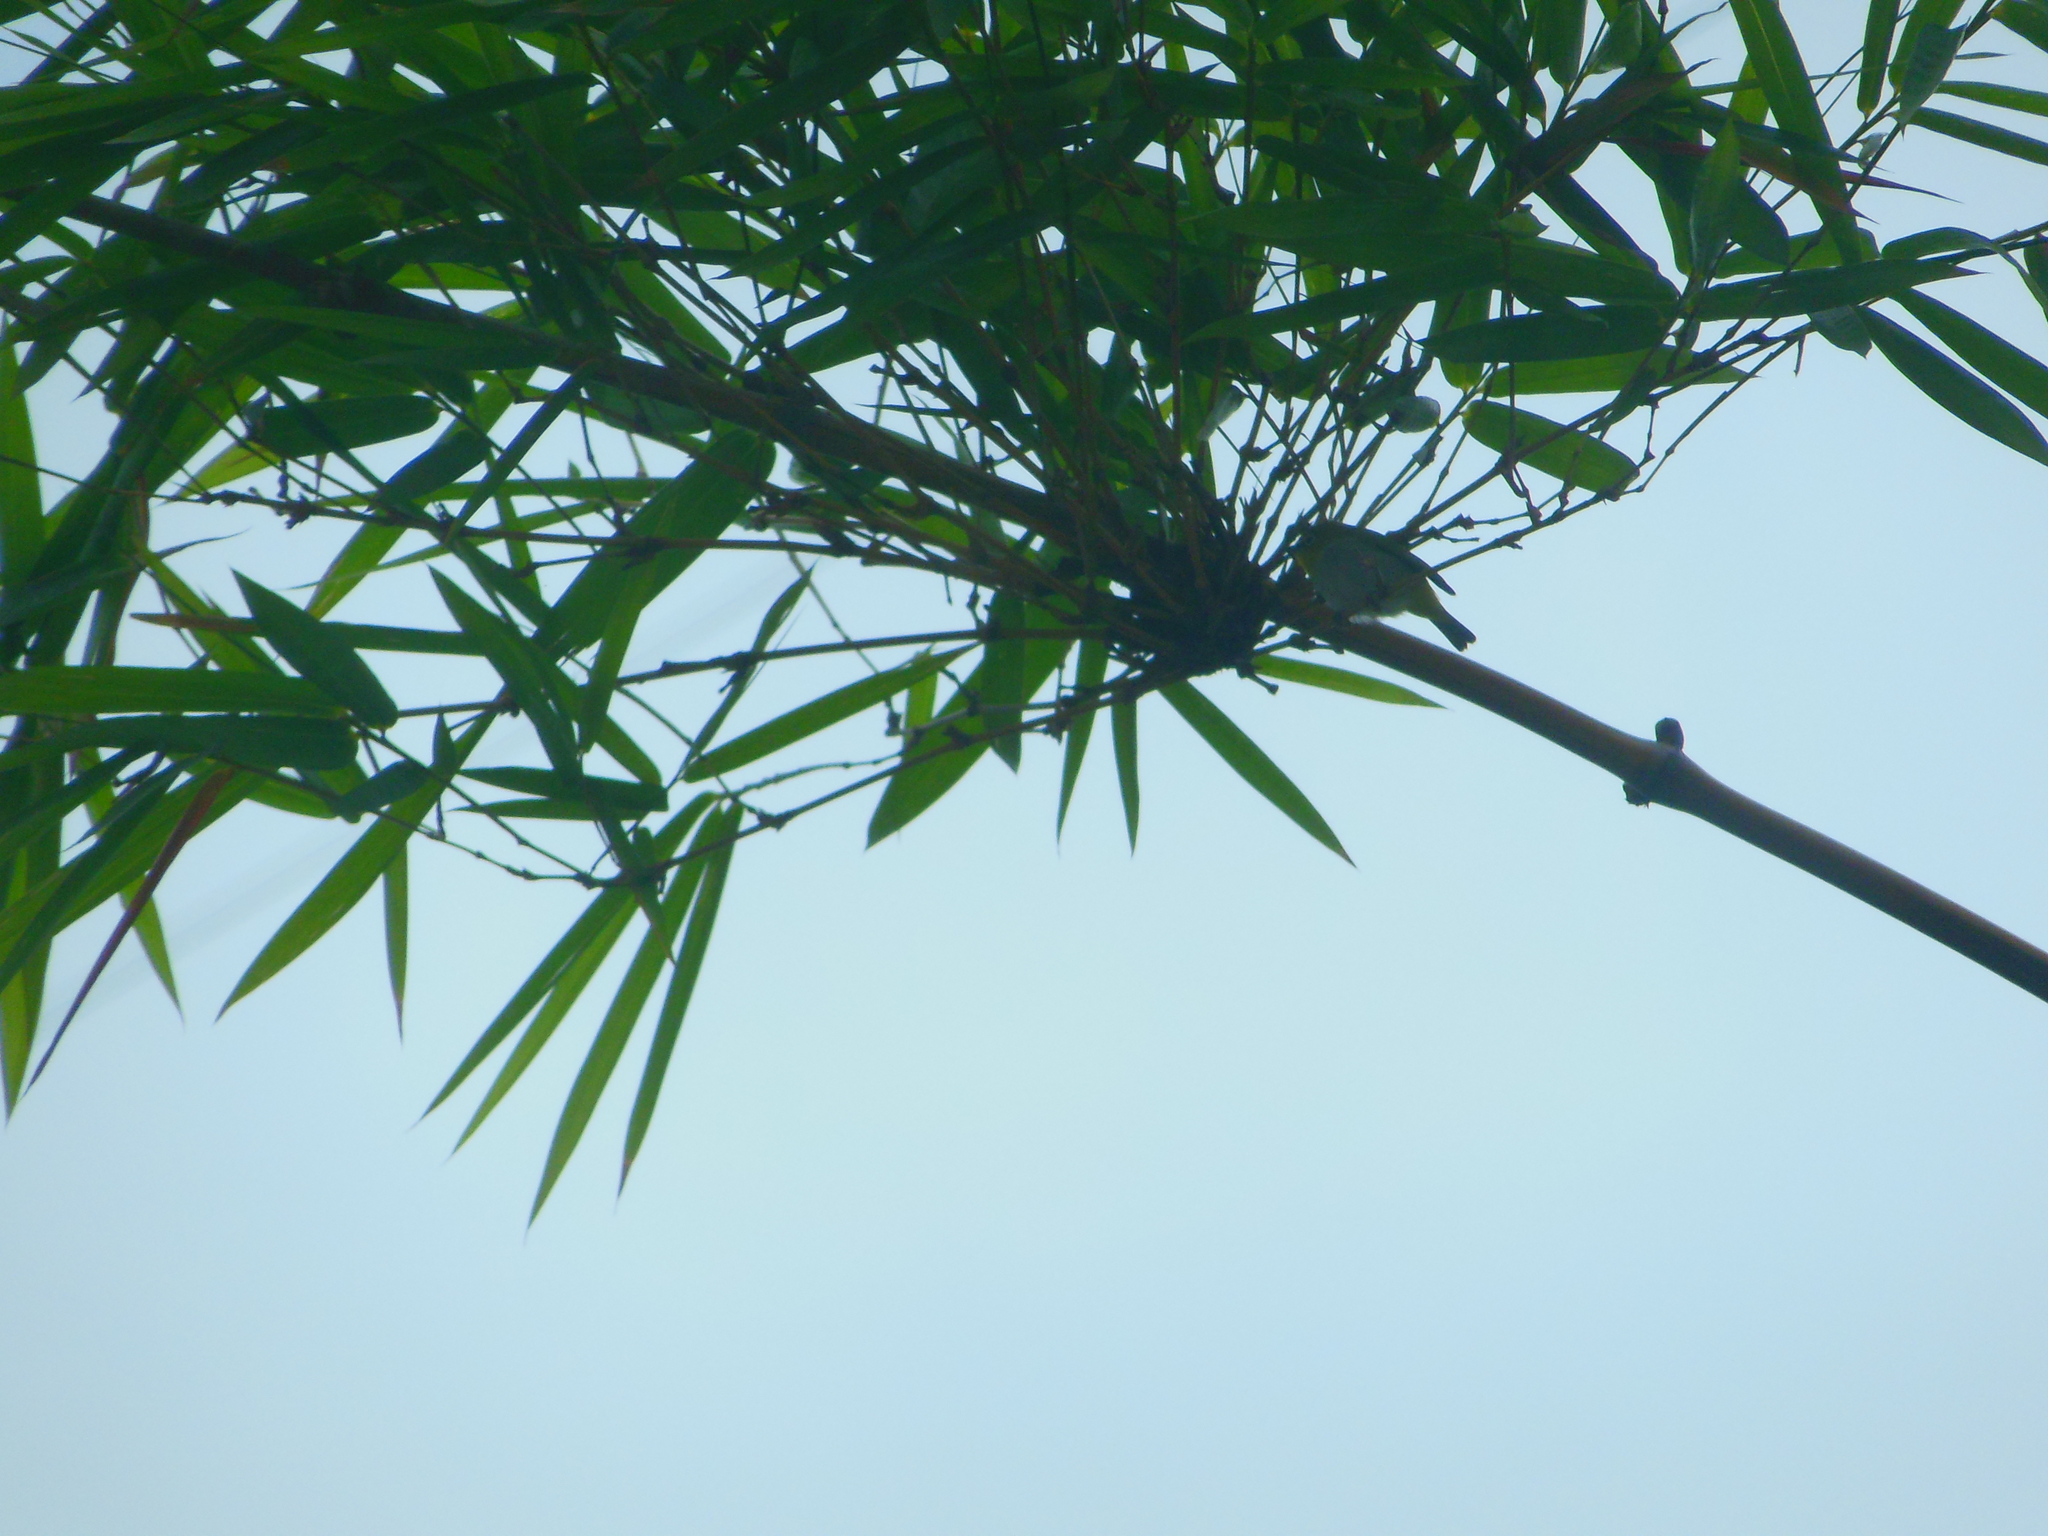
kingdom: Animalia
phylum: Chordata
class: Aves
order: Passeriformes
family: Zosteropidae
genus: Zosterops
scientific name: Zosterops palpebrosus
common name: Oriental white-eye
